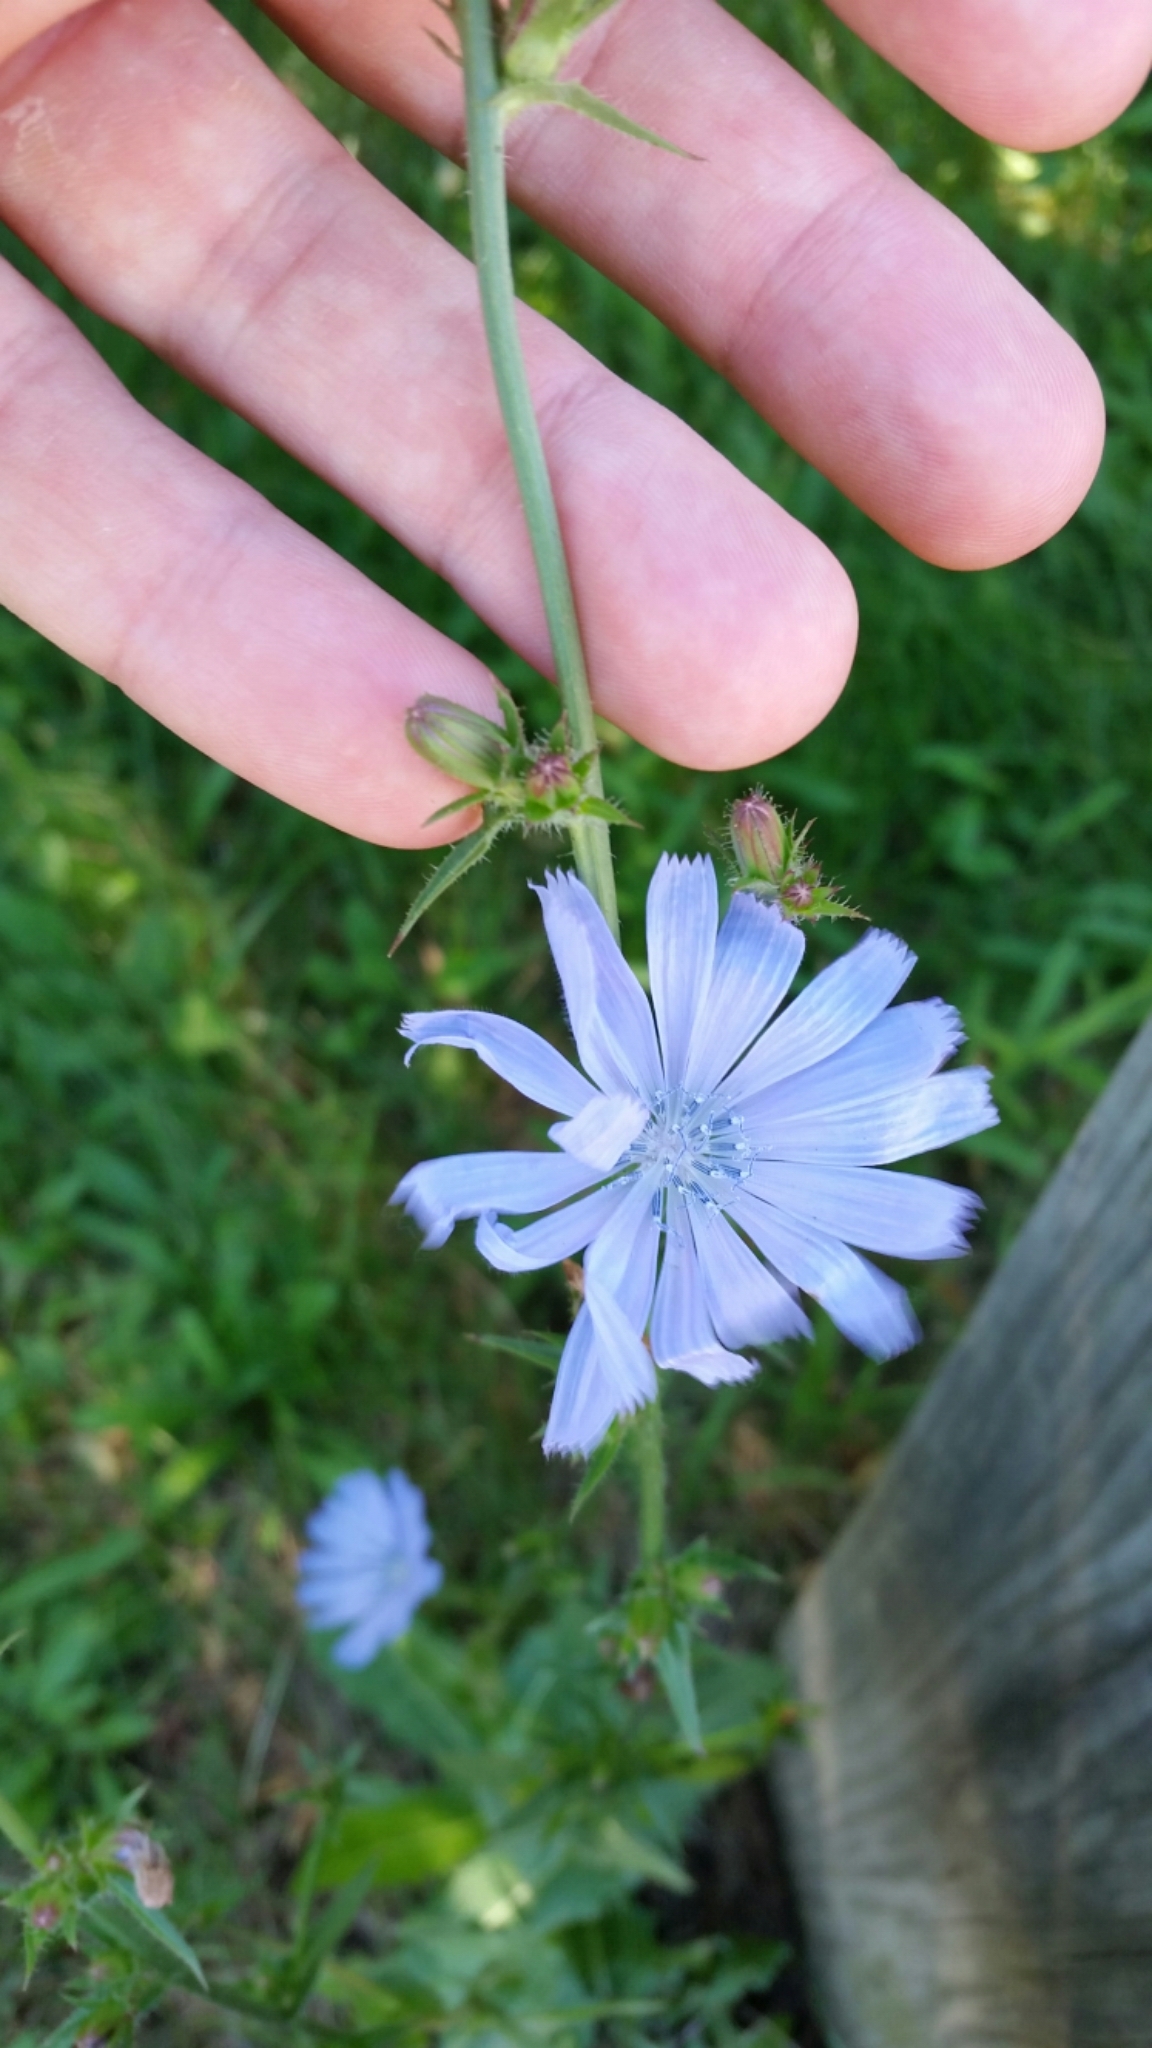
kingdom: Plantae
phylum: Tracheophyta
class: Magnoliopsida
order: Asterales
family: Asteraceae
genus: Cichorium
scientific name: Cichorium intybus
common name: Chicory
